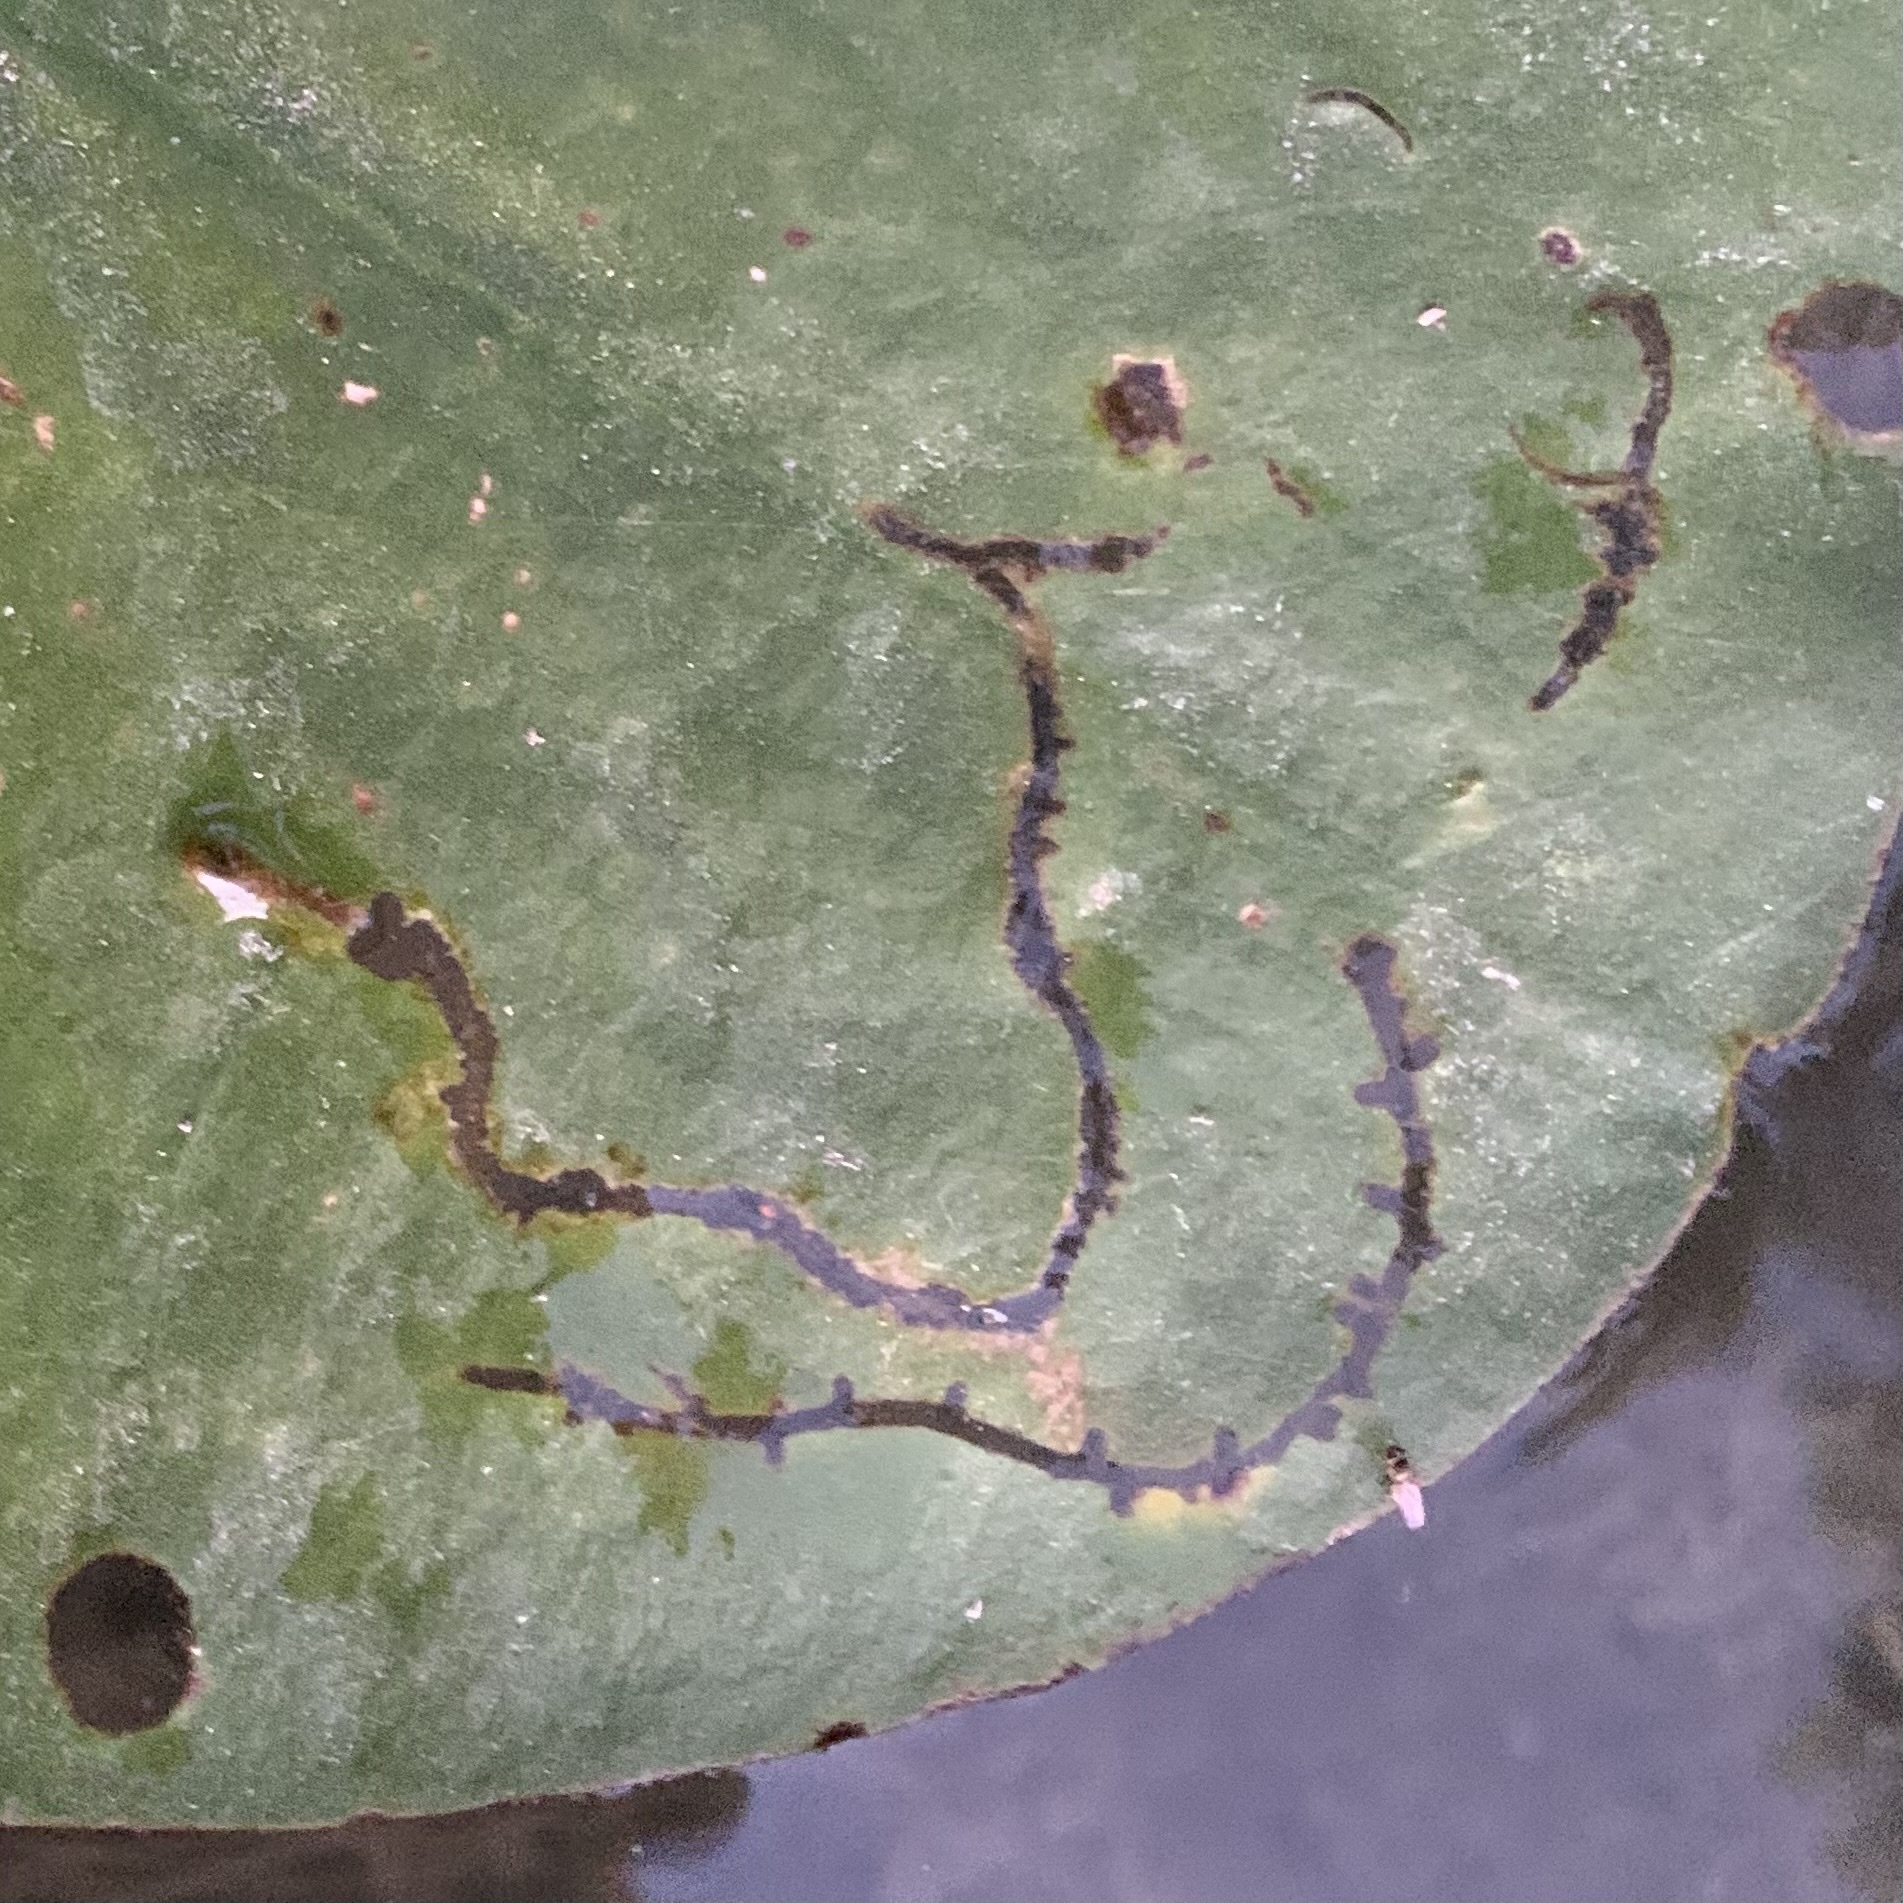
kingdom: Animalia
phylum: Arthropoda
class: Insecta
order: Diptera
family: Chironomidae
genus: Polypedilum
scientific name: Polypedilum braseniae
